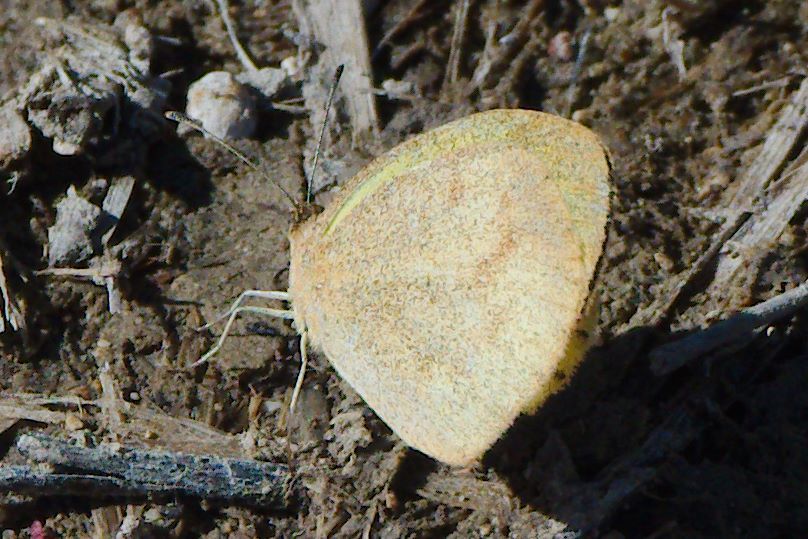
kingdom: Animalia
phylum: Arthropoda
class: Insecta
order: Lepidoptera
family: Pieridae
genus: Eurema
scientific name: Eurema daira
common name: Barred sulphur
